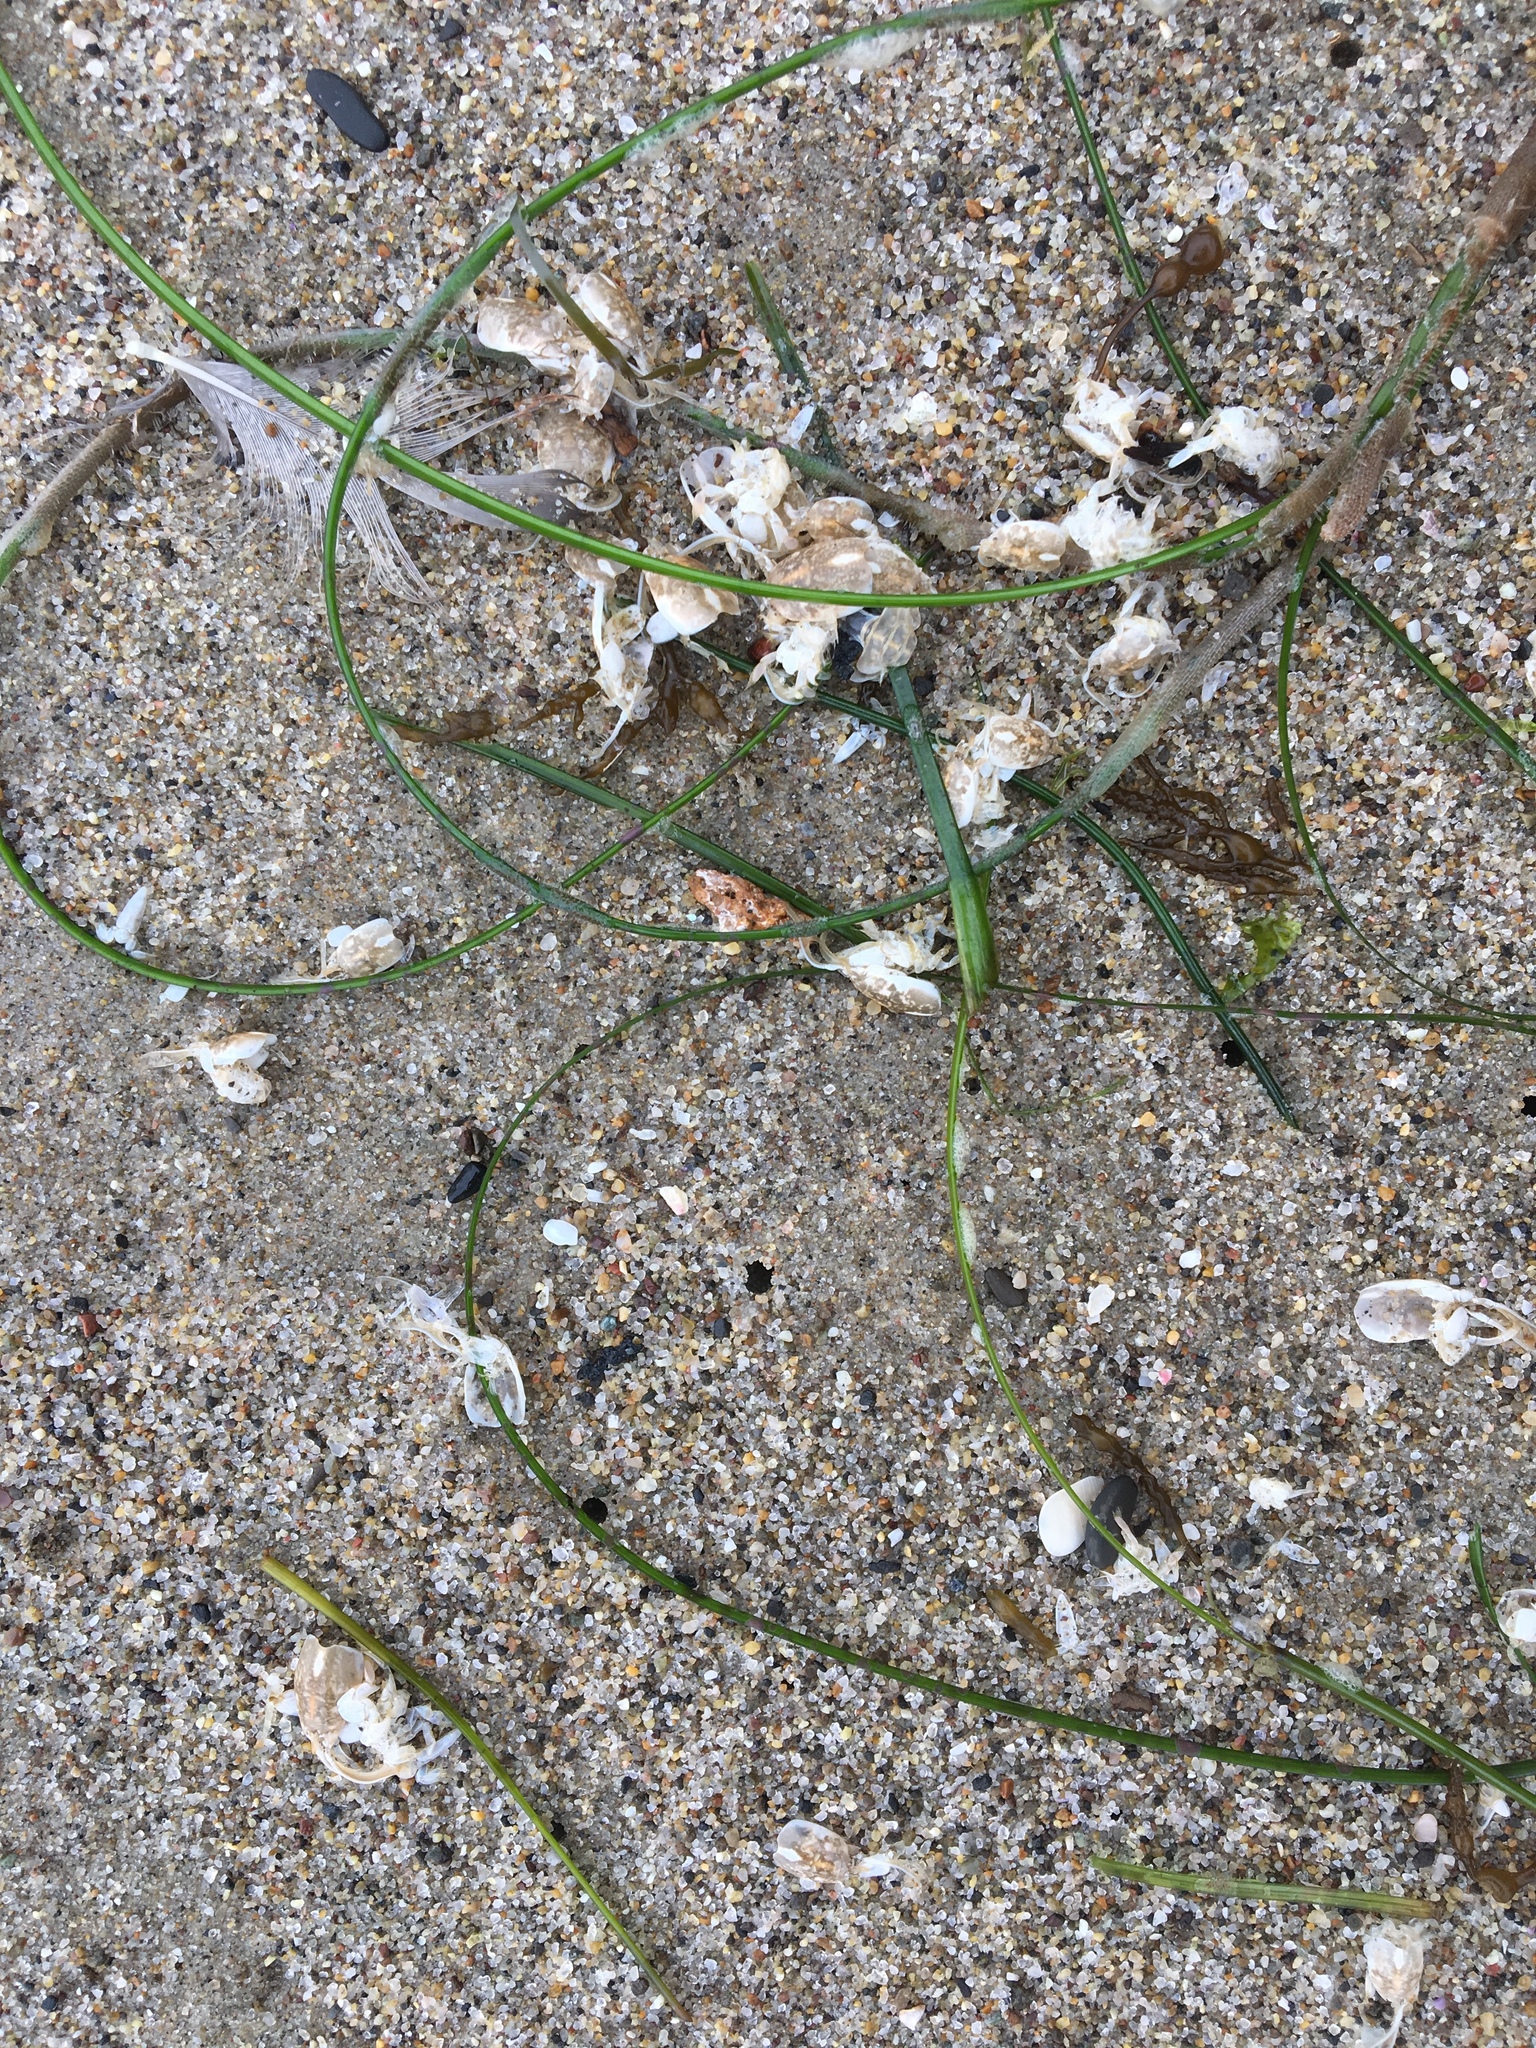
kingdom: Animalia
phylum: Arthropoda
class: Malacostraca
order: Decapoda
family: Hippidae
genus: Emerita
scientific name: Emerita analoga
